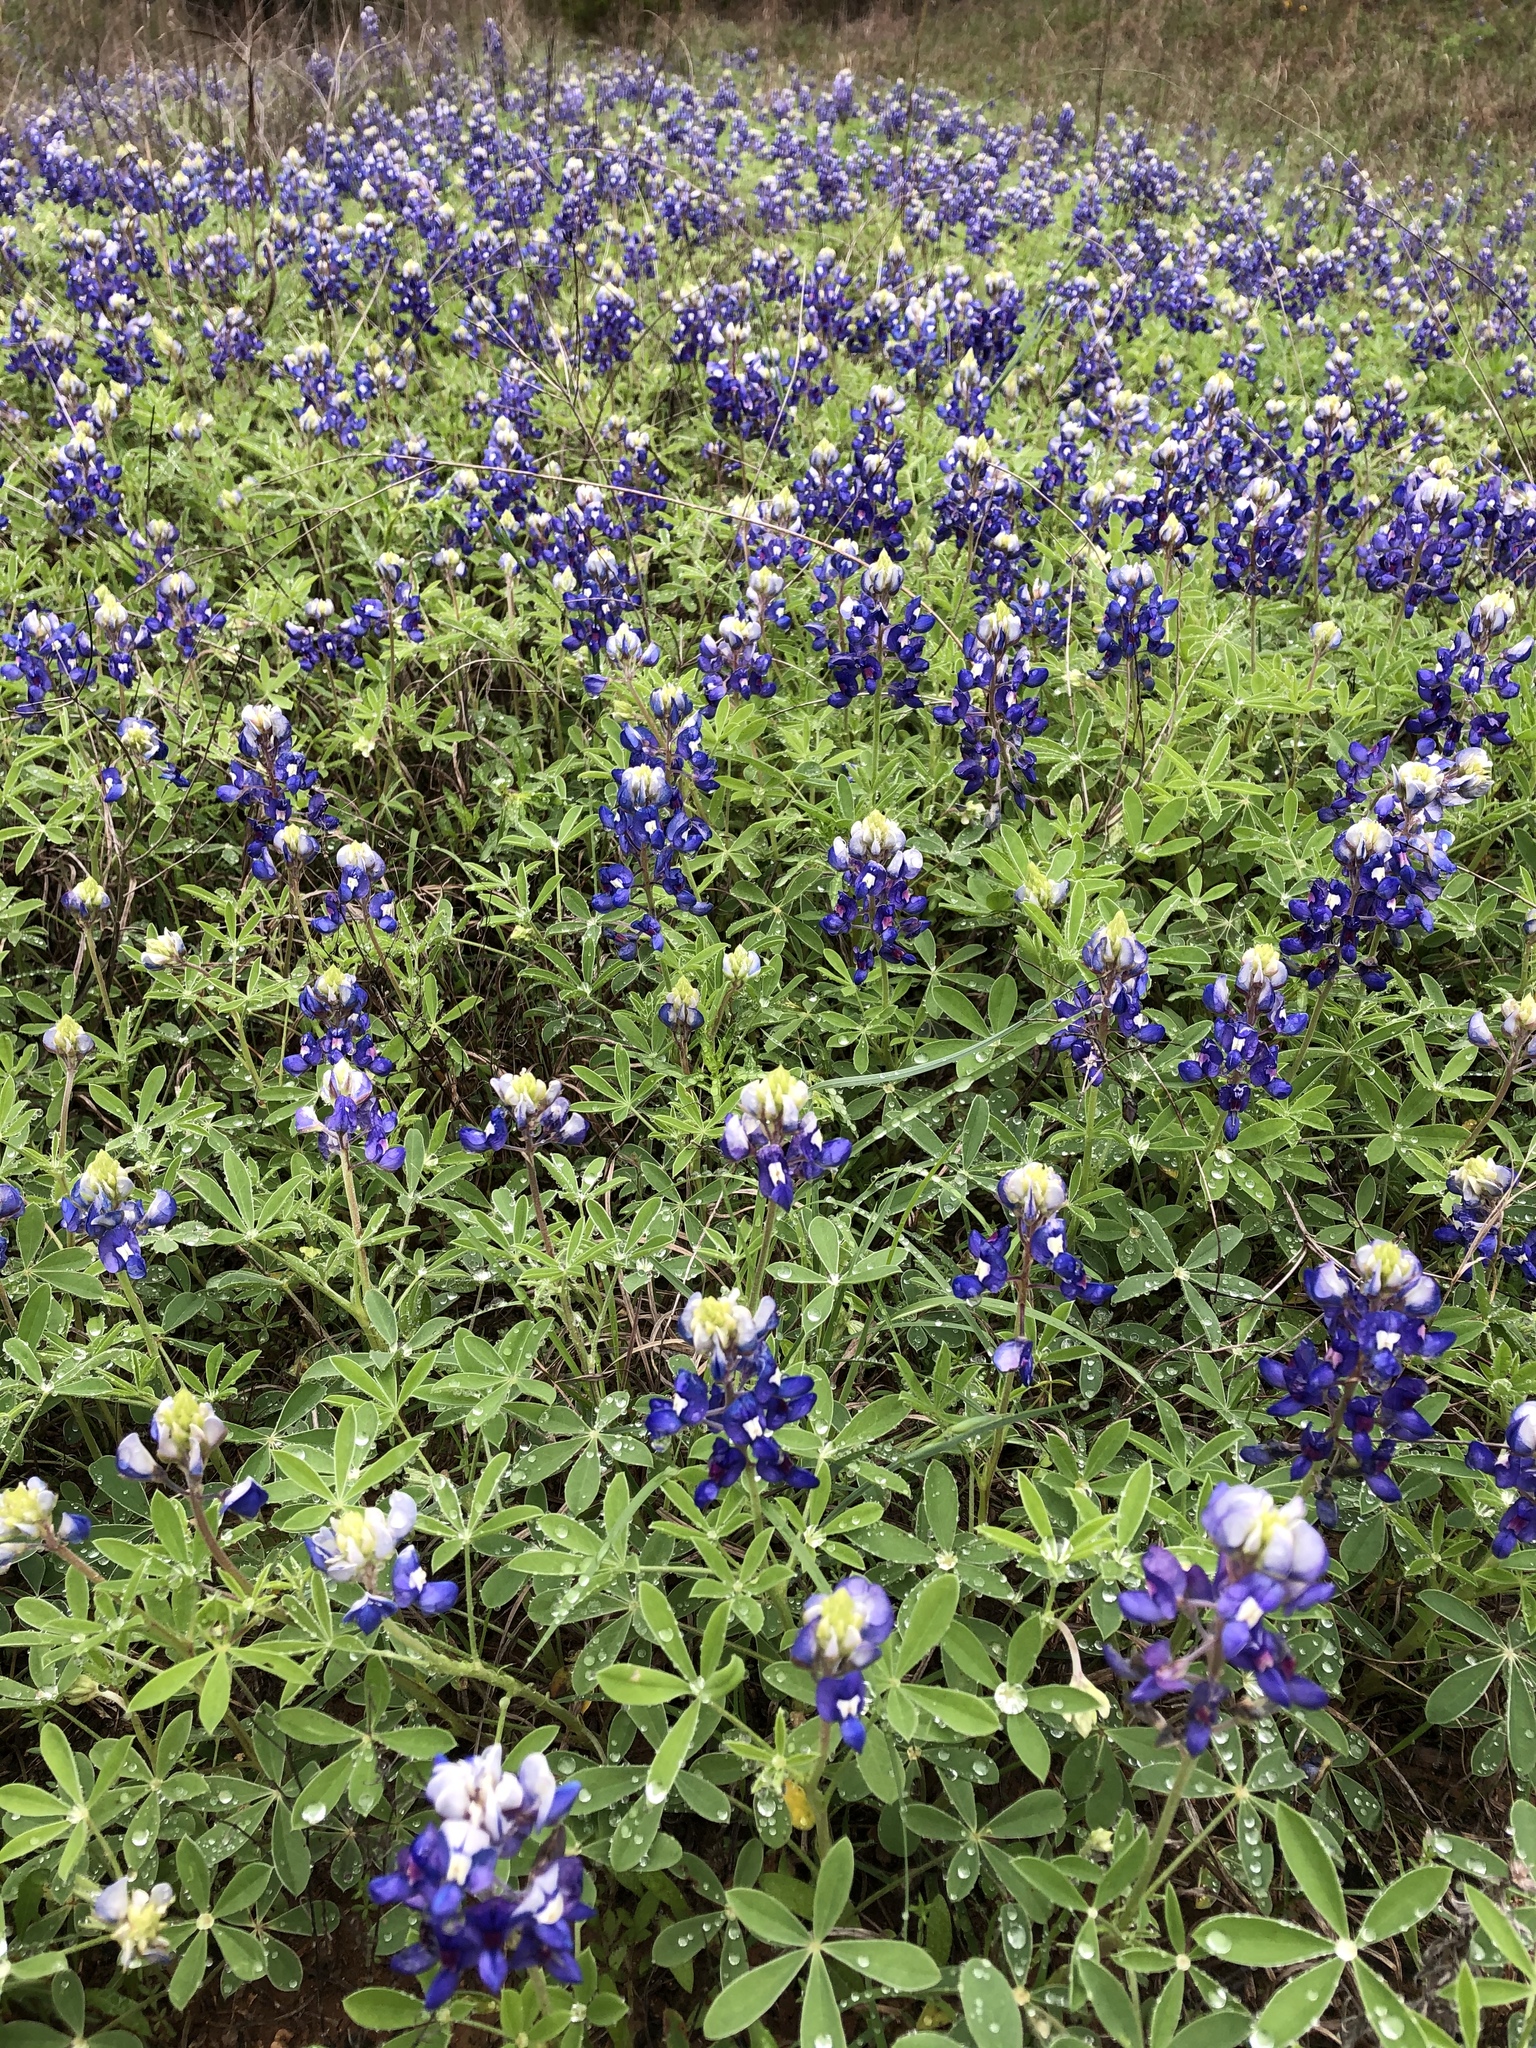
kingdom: Plantae
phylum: Tracheophyta
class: Magnoliopsida
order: Fabales
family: Fabaceae
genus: Lupinus
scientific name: Lupinus texensis
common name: Texas bluebonnet
